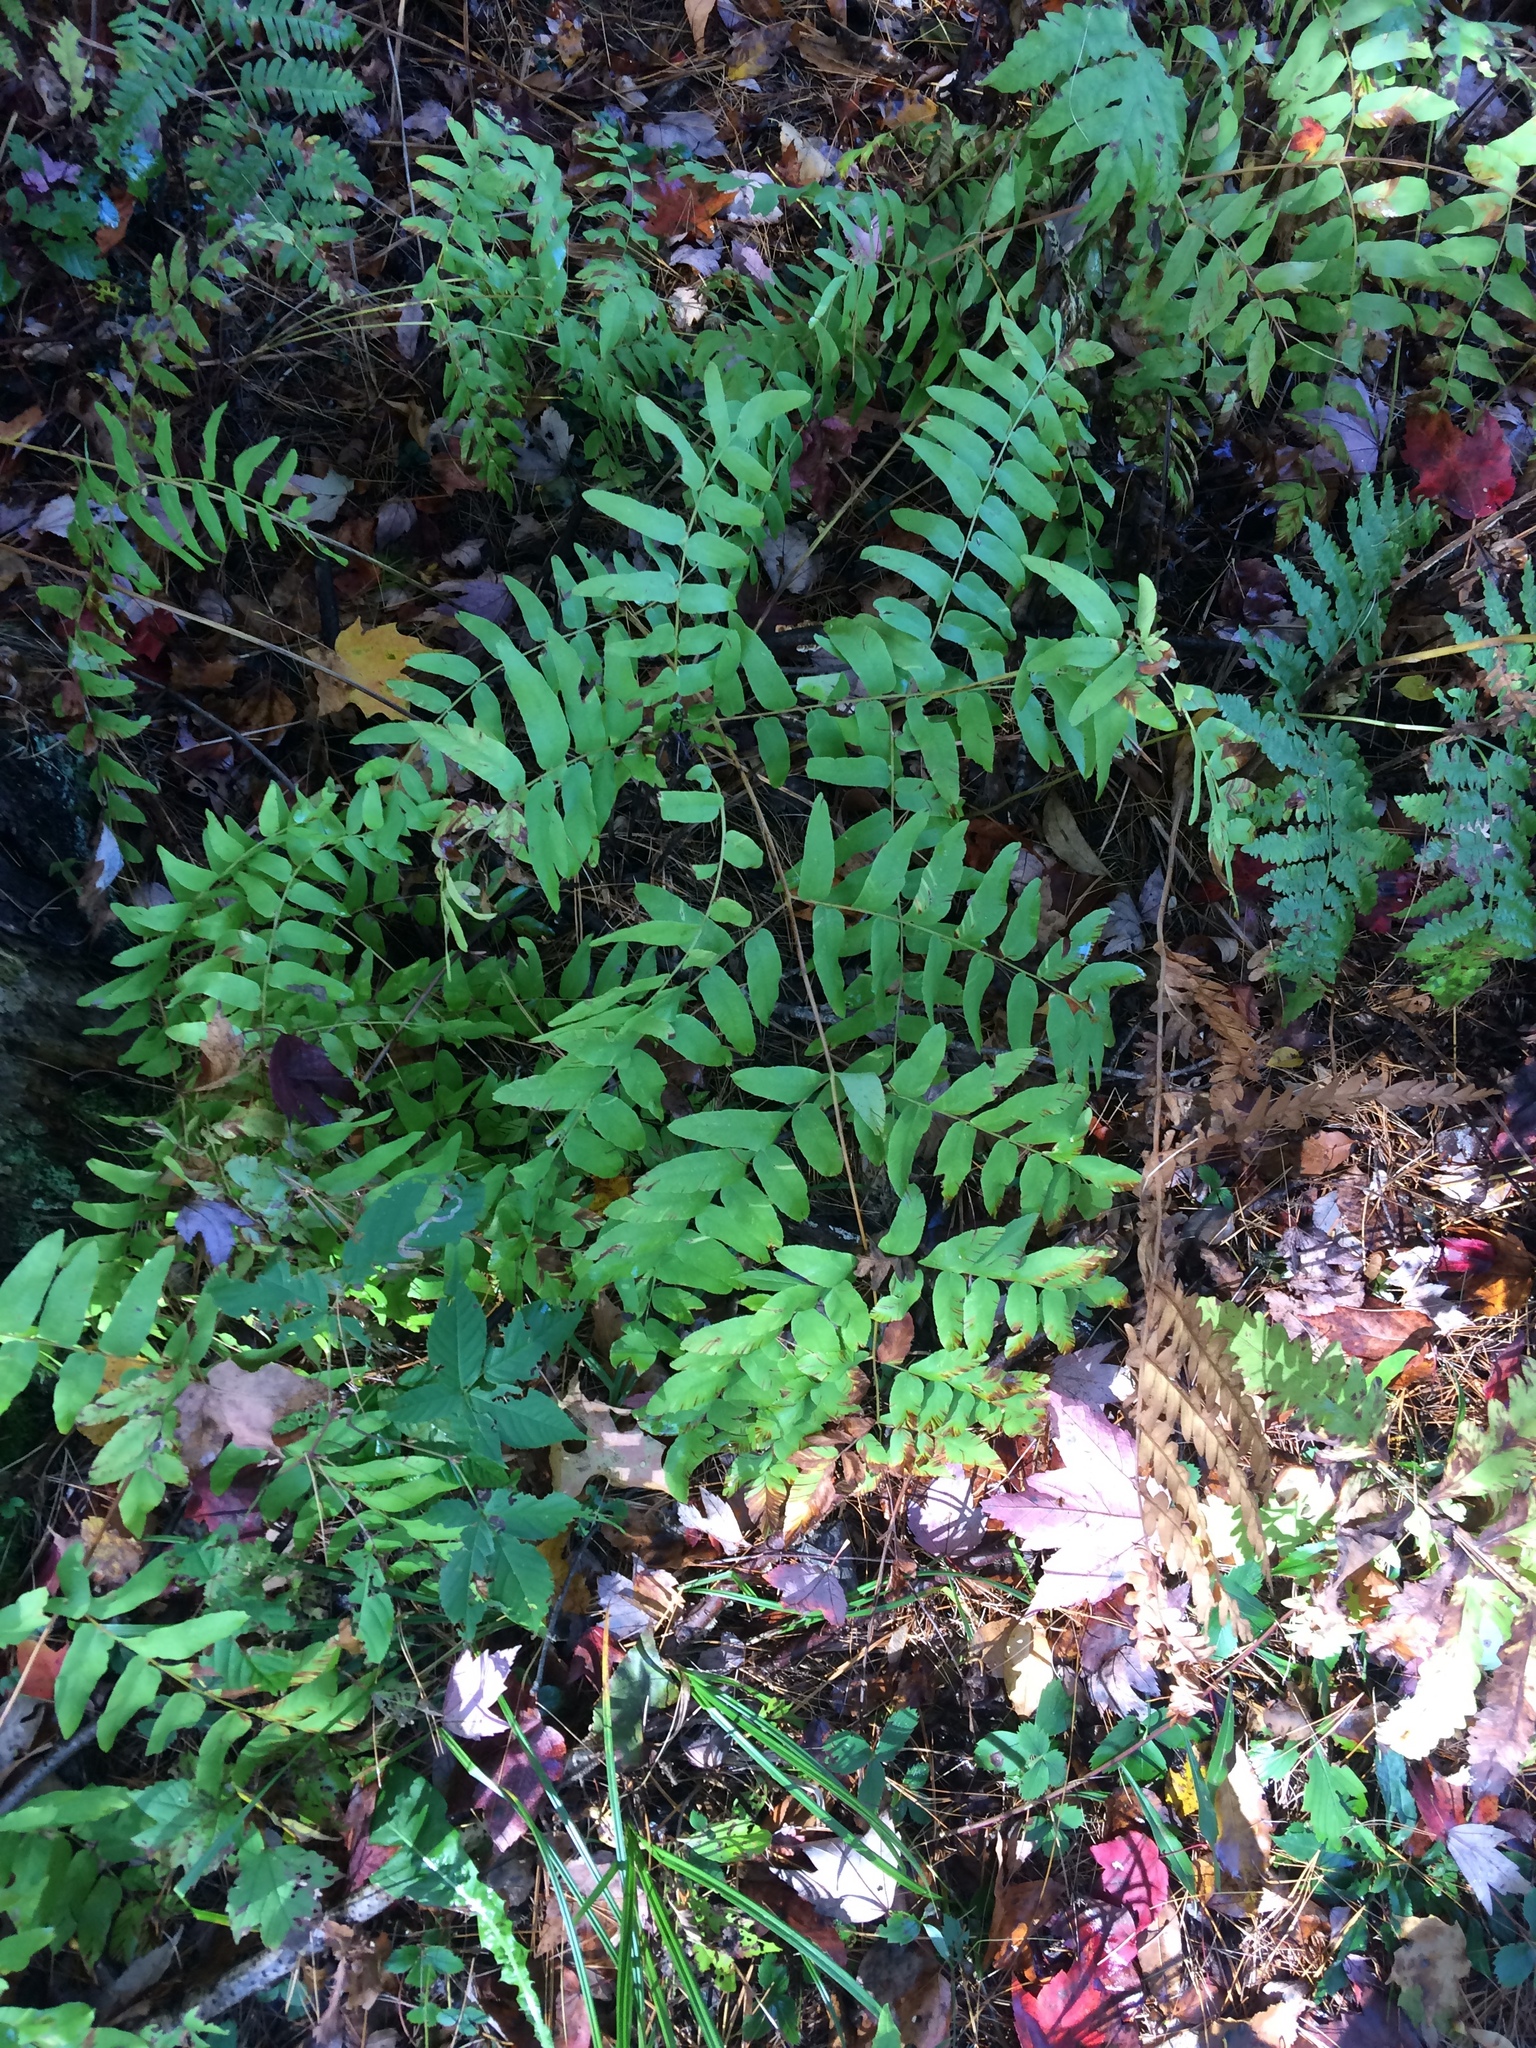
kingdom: Plantae
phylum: Tracheophyta
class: Polypodiopsida
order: Osmundales
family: Osmundaceae
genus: Osmunda
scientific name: Osmunda spectabilis
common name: American royal fern
